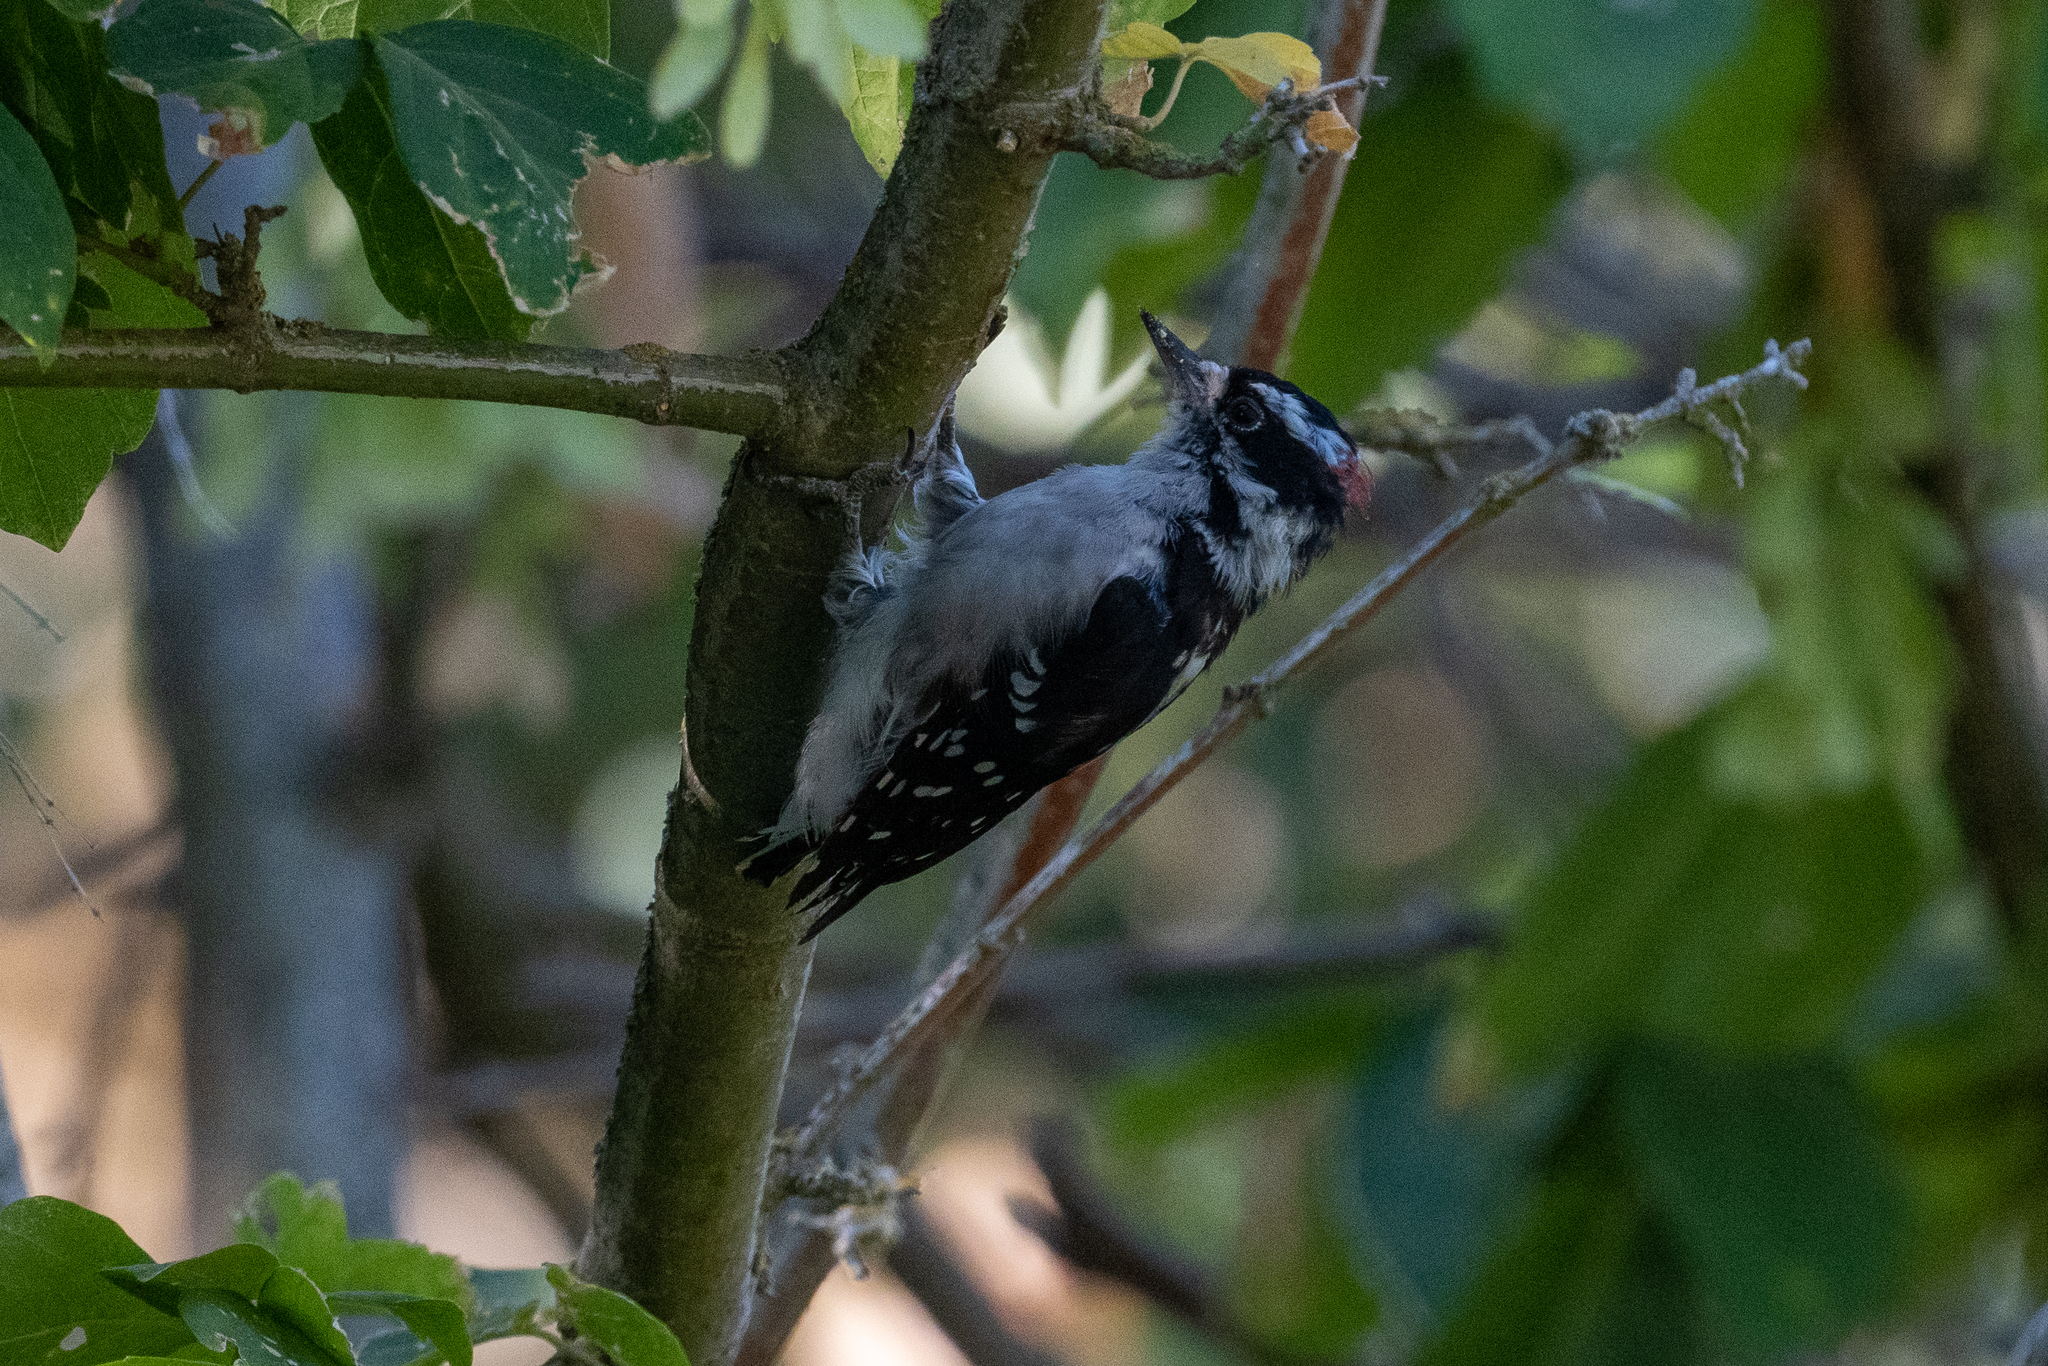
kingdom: Animalia
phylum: Chordata
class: Aves
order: Piciformes
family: Picidae
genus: Dryobates
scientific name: Dryobates pubescens
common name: Downy woodpecker
